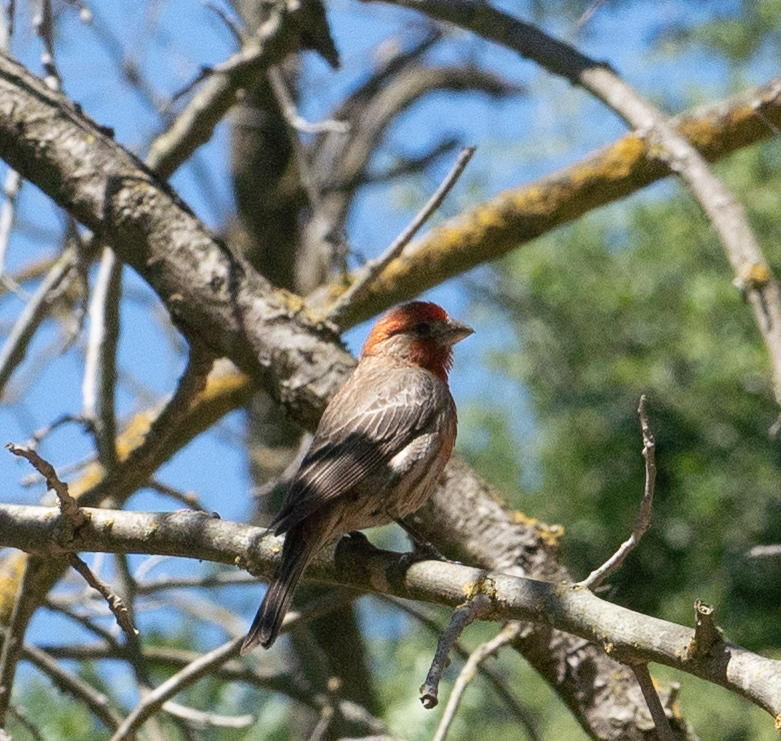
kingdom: Animalia
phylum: Chordata
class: Aves
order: Passeriformes
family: Fringillidae
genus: Haemorhous
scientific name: Haemorhous mexicanus
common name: House finch
